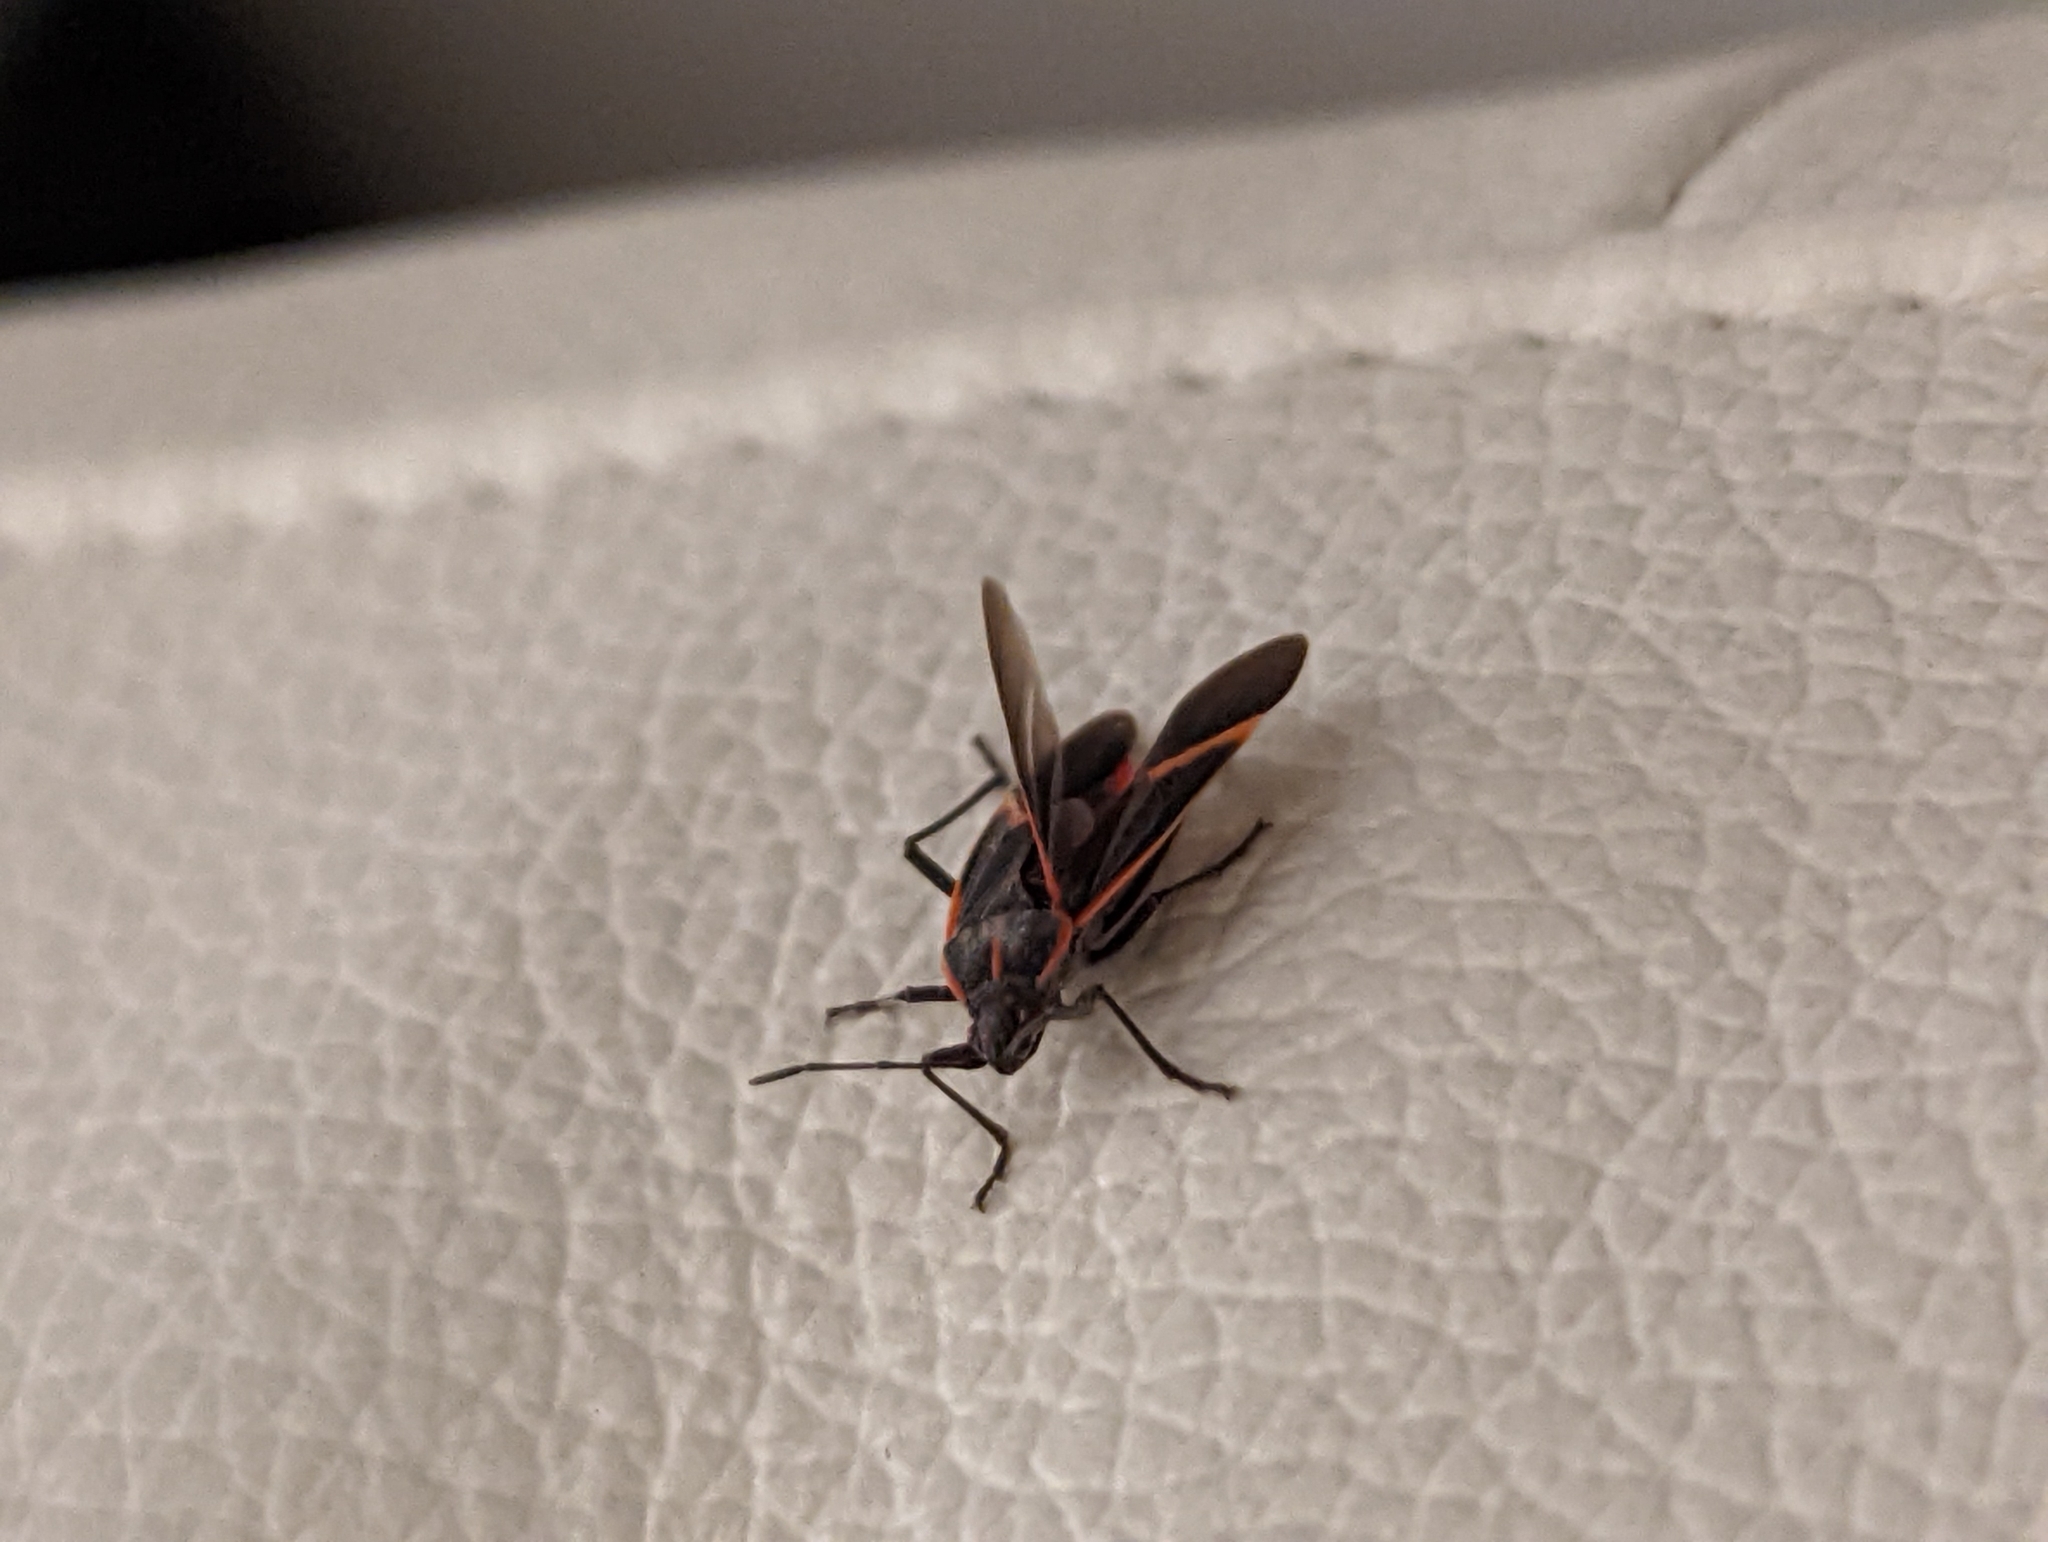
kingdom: Animalia
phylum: Arthropoda
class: Insecta
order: Hemiptera
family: Rhopalidae
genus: Boisea
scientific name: Boisea trivittata
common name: Boxelder bug
